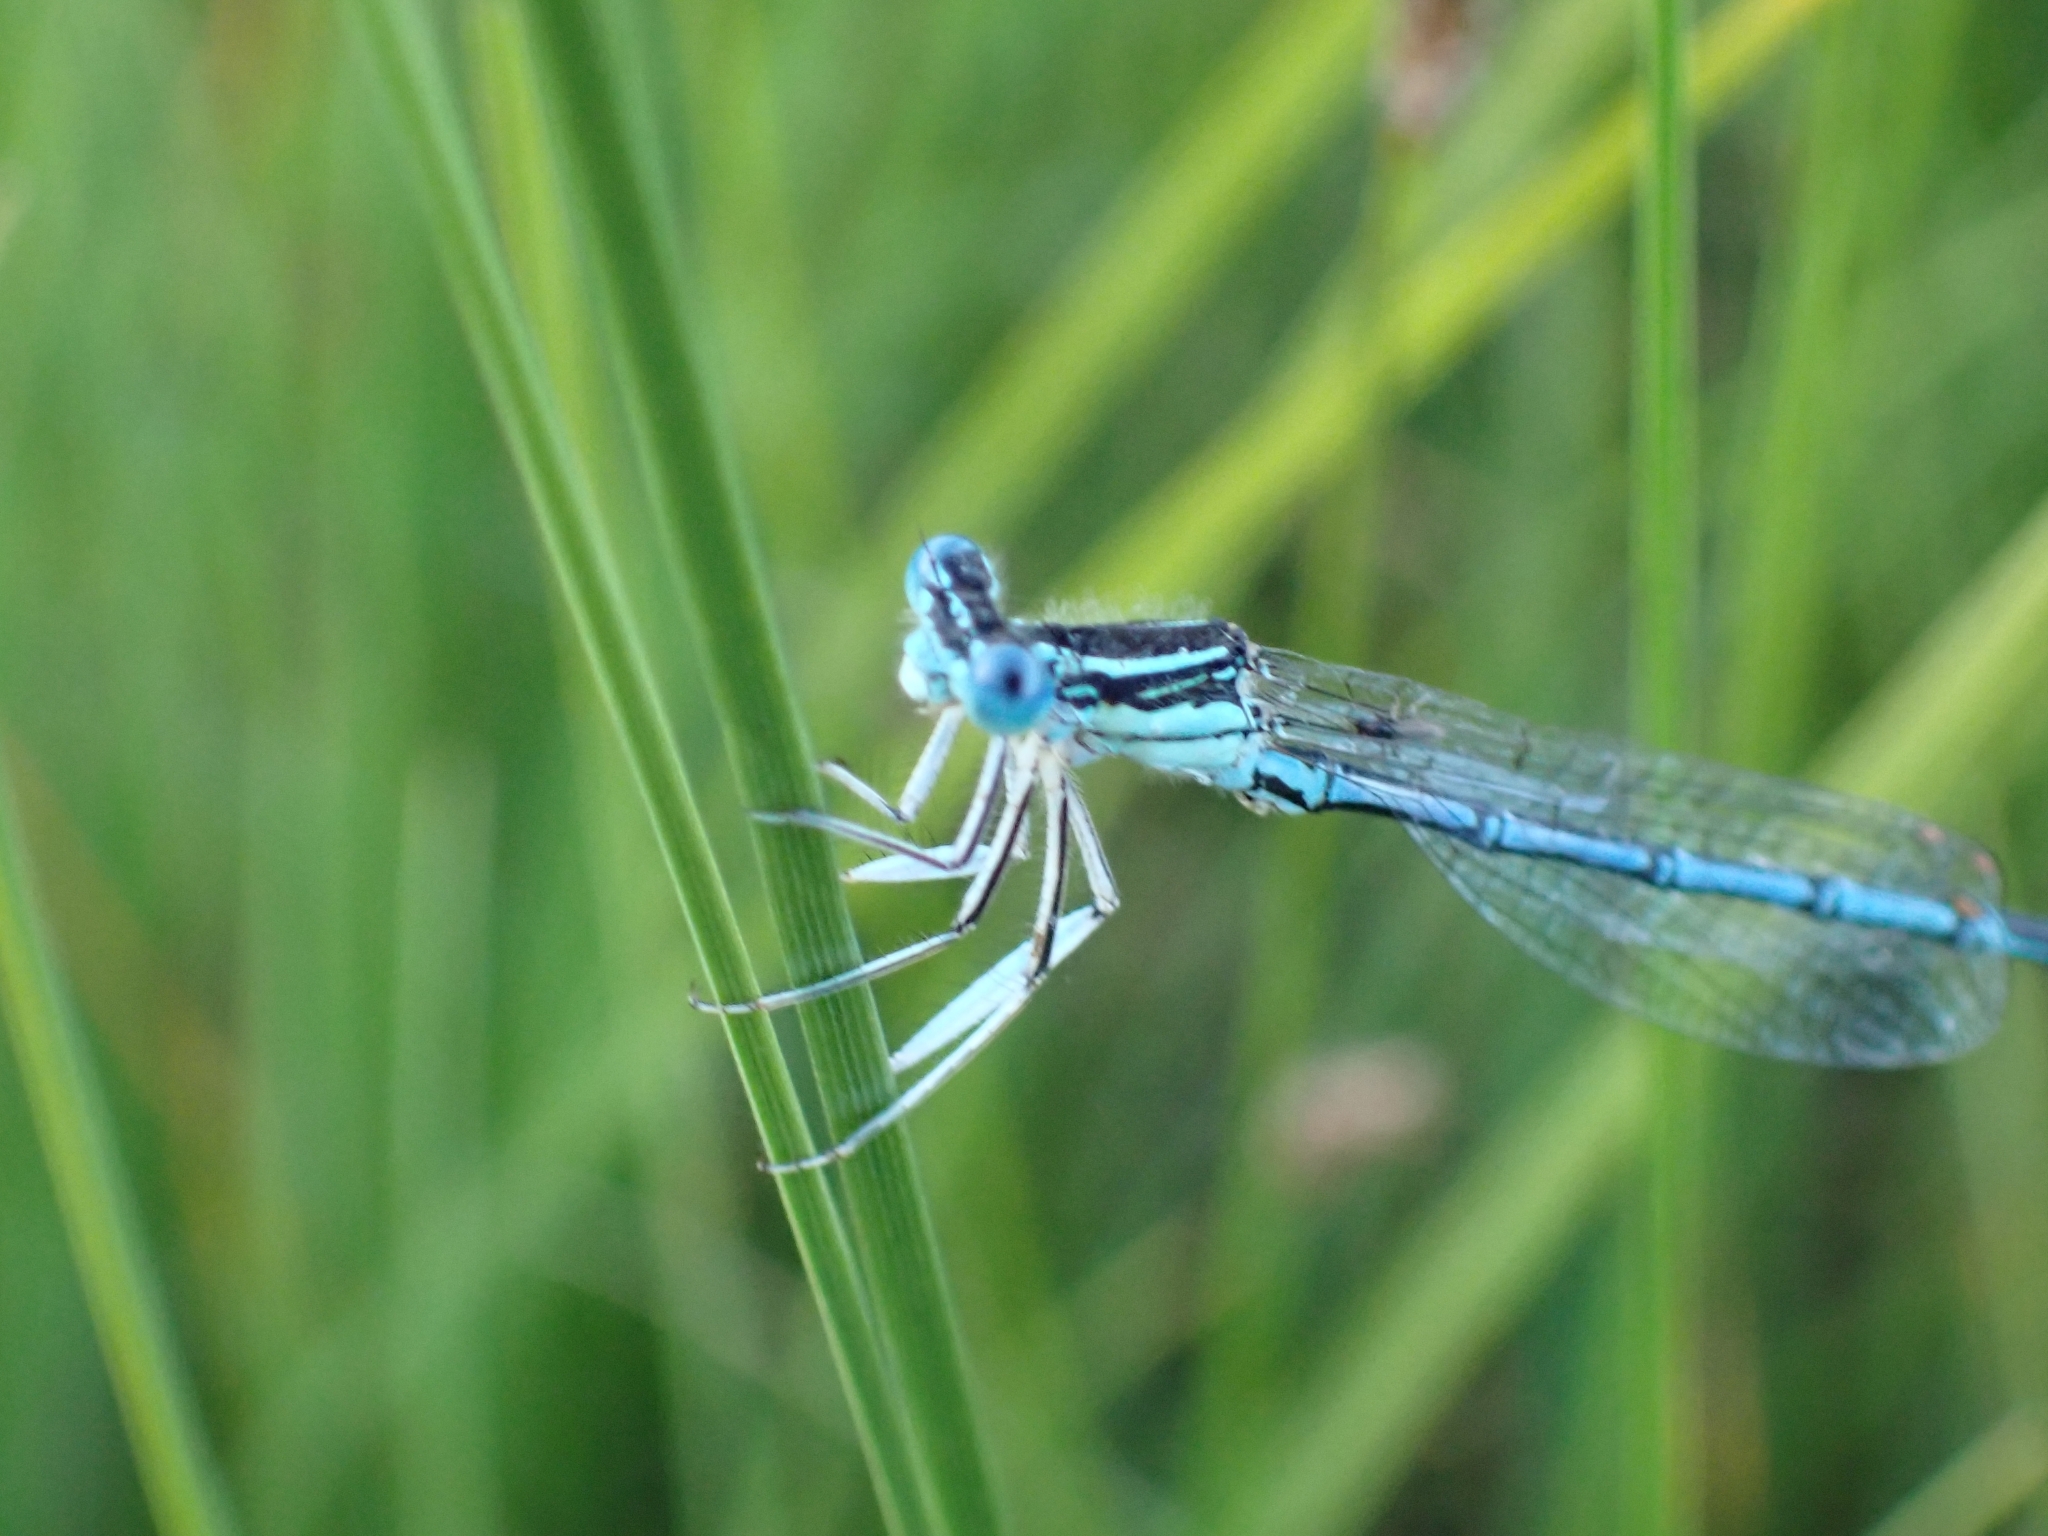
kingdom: Animalia
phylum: Arthropoda
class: Insecta
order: Odonata
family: Platycnemididae
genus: Platycnemis
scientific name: Platycnemis pennipes
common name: White-legged damselfly
